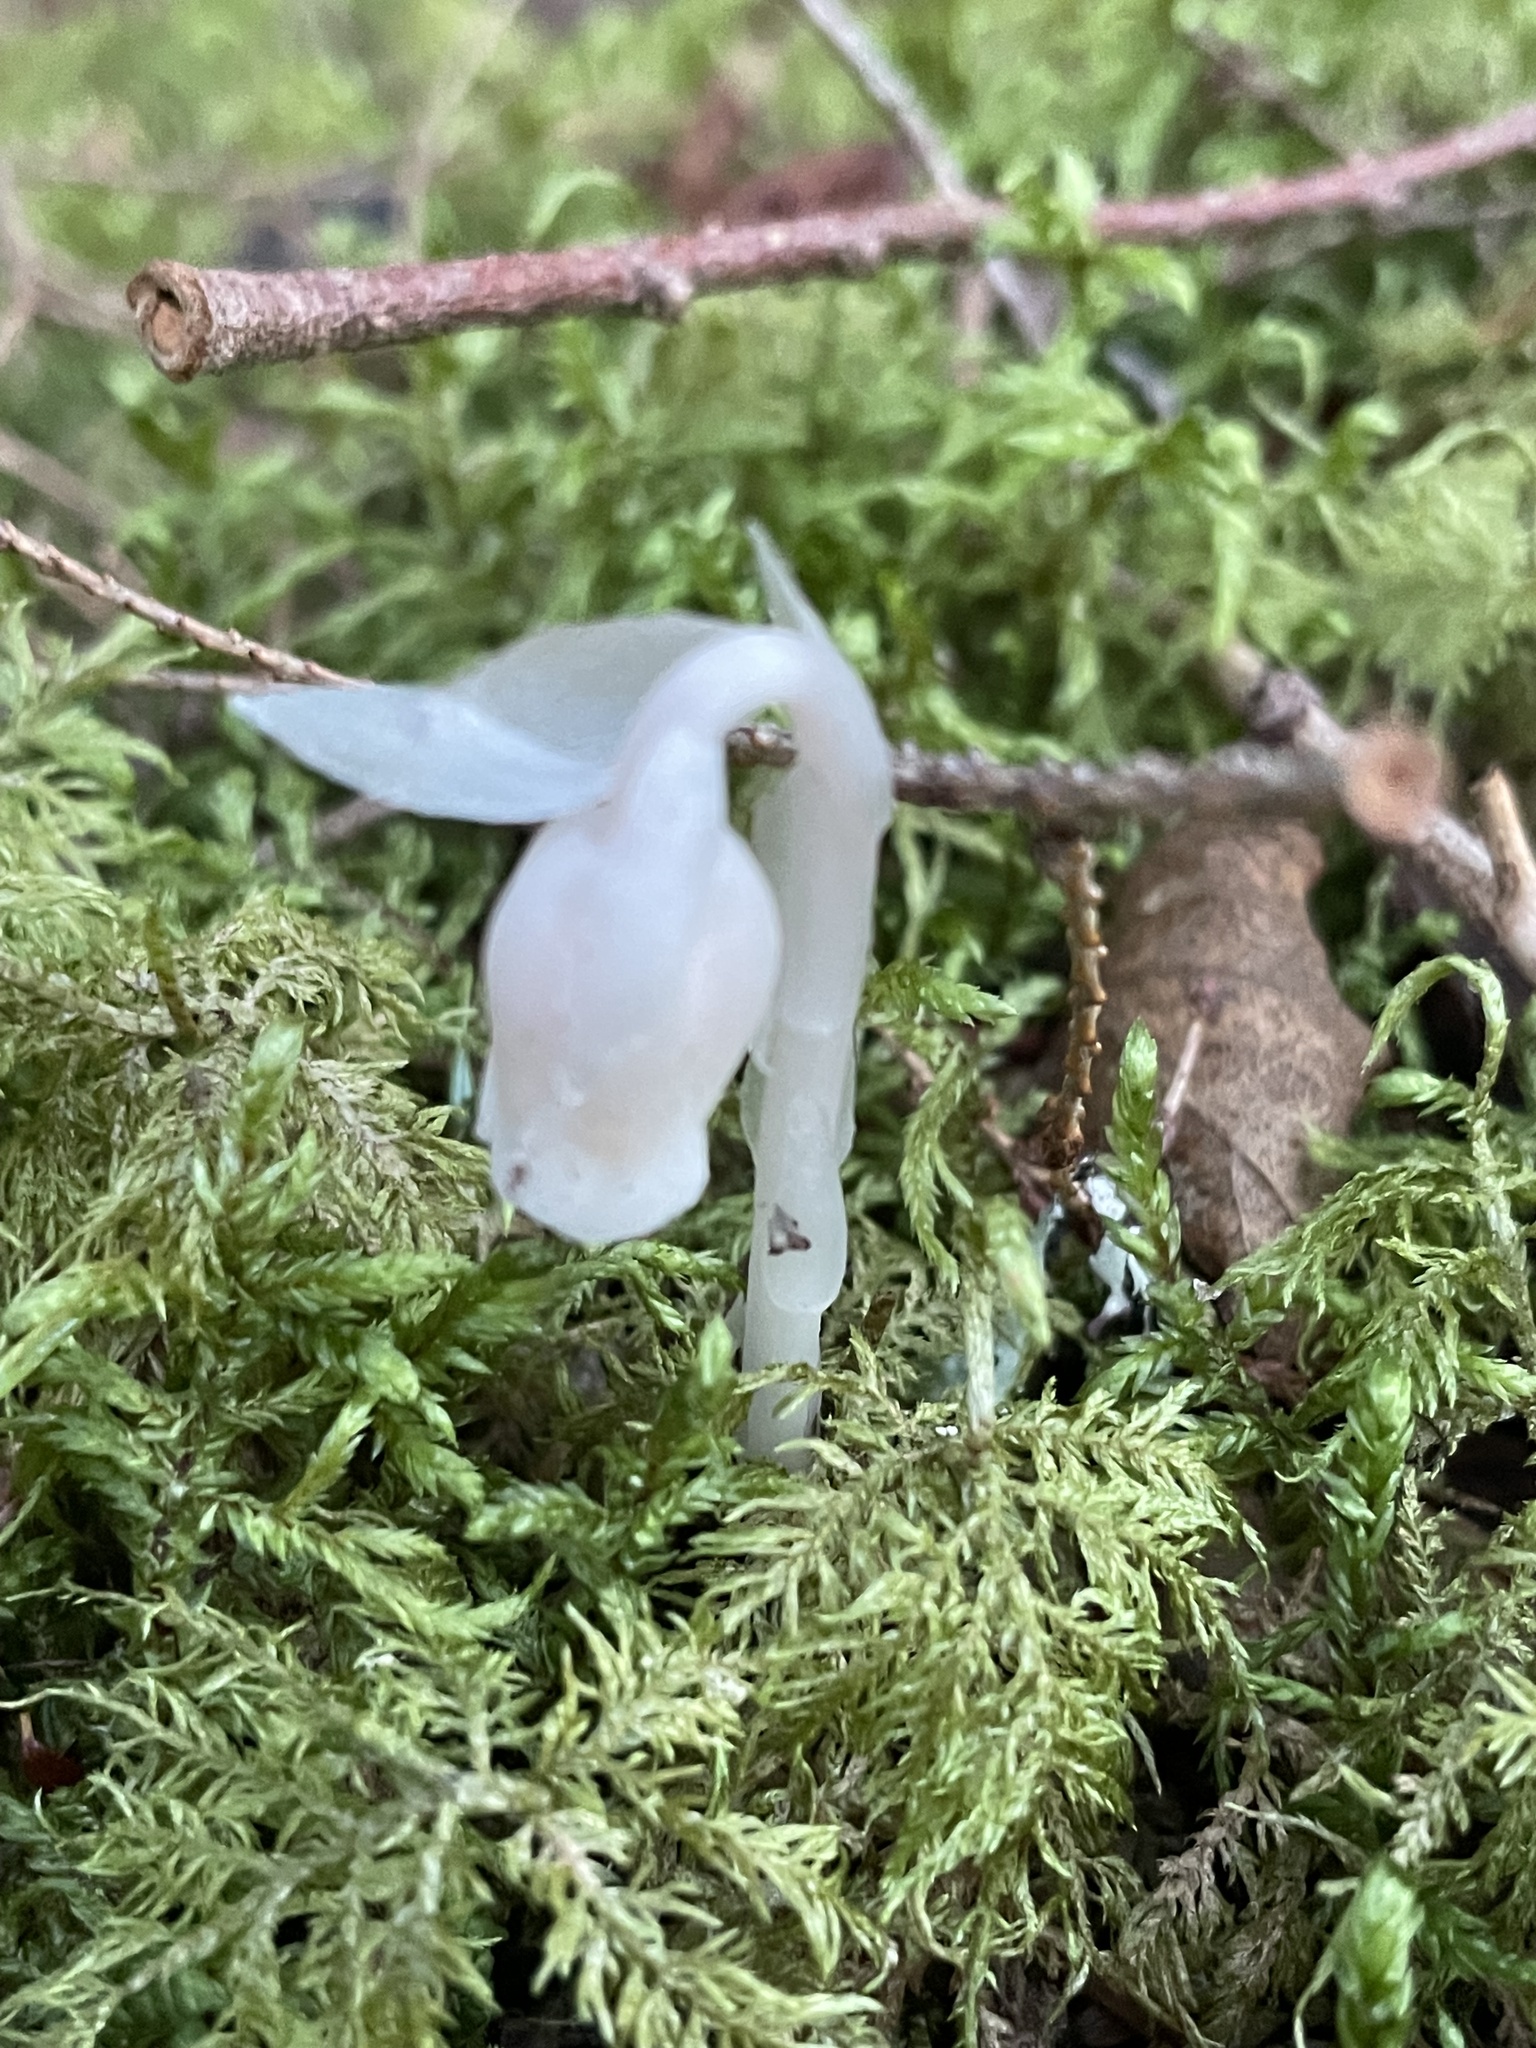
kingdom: Plantae
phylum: Tracheophyta
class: Magnoliopsida
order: Ericales
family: Ericaceae
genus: Monotropa
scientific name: Monotropa uniflora
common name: Convulsion root
